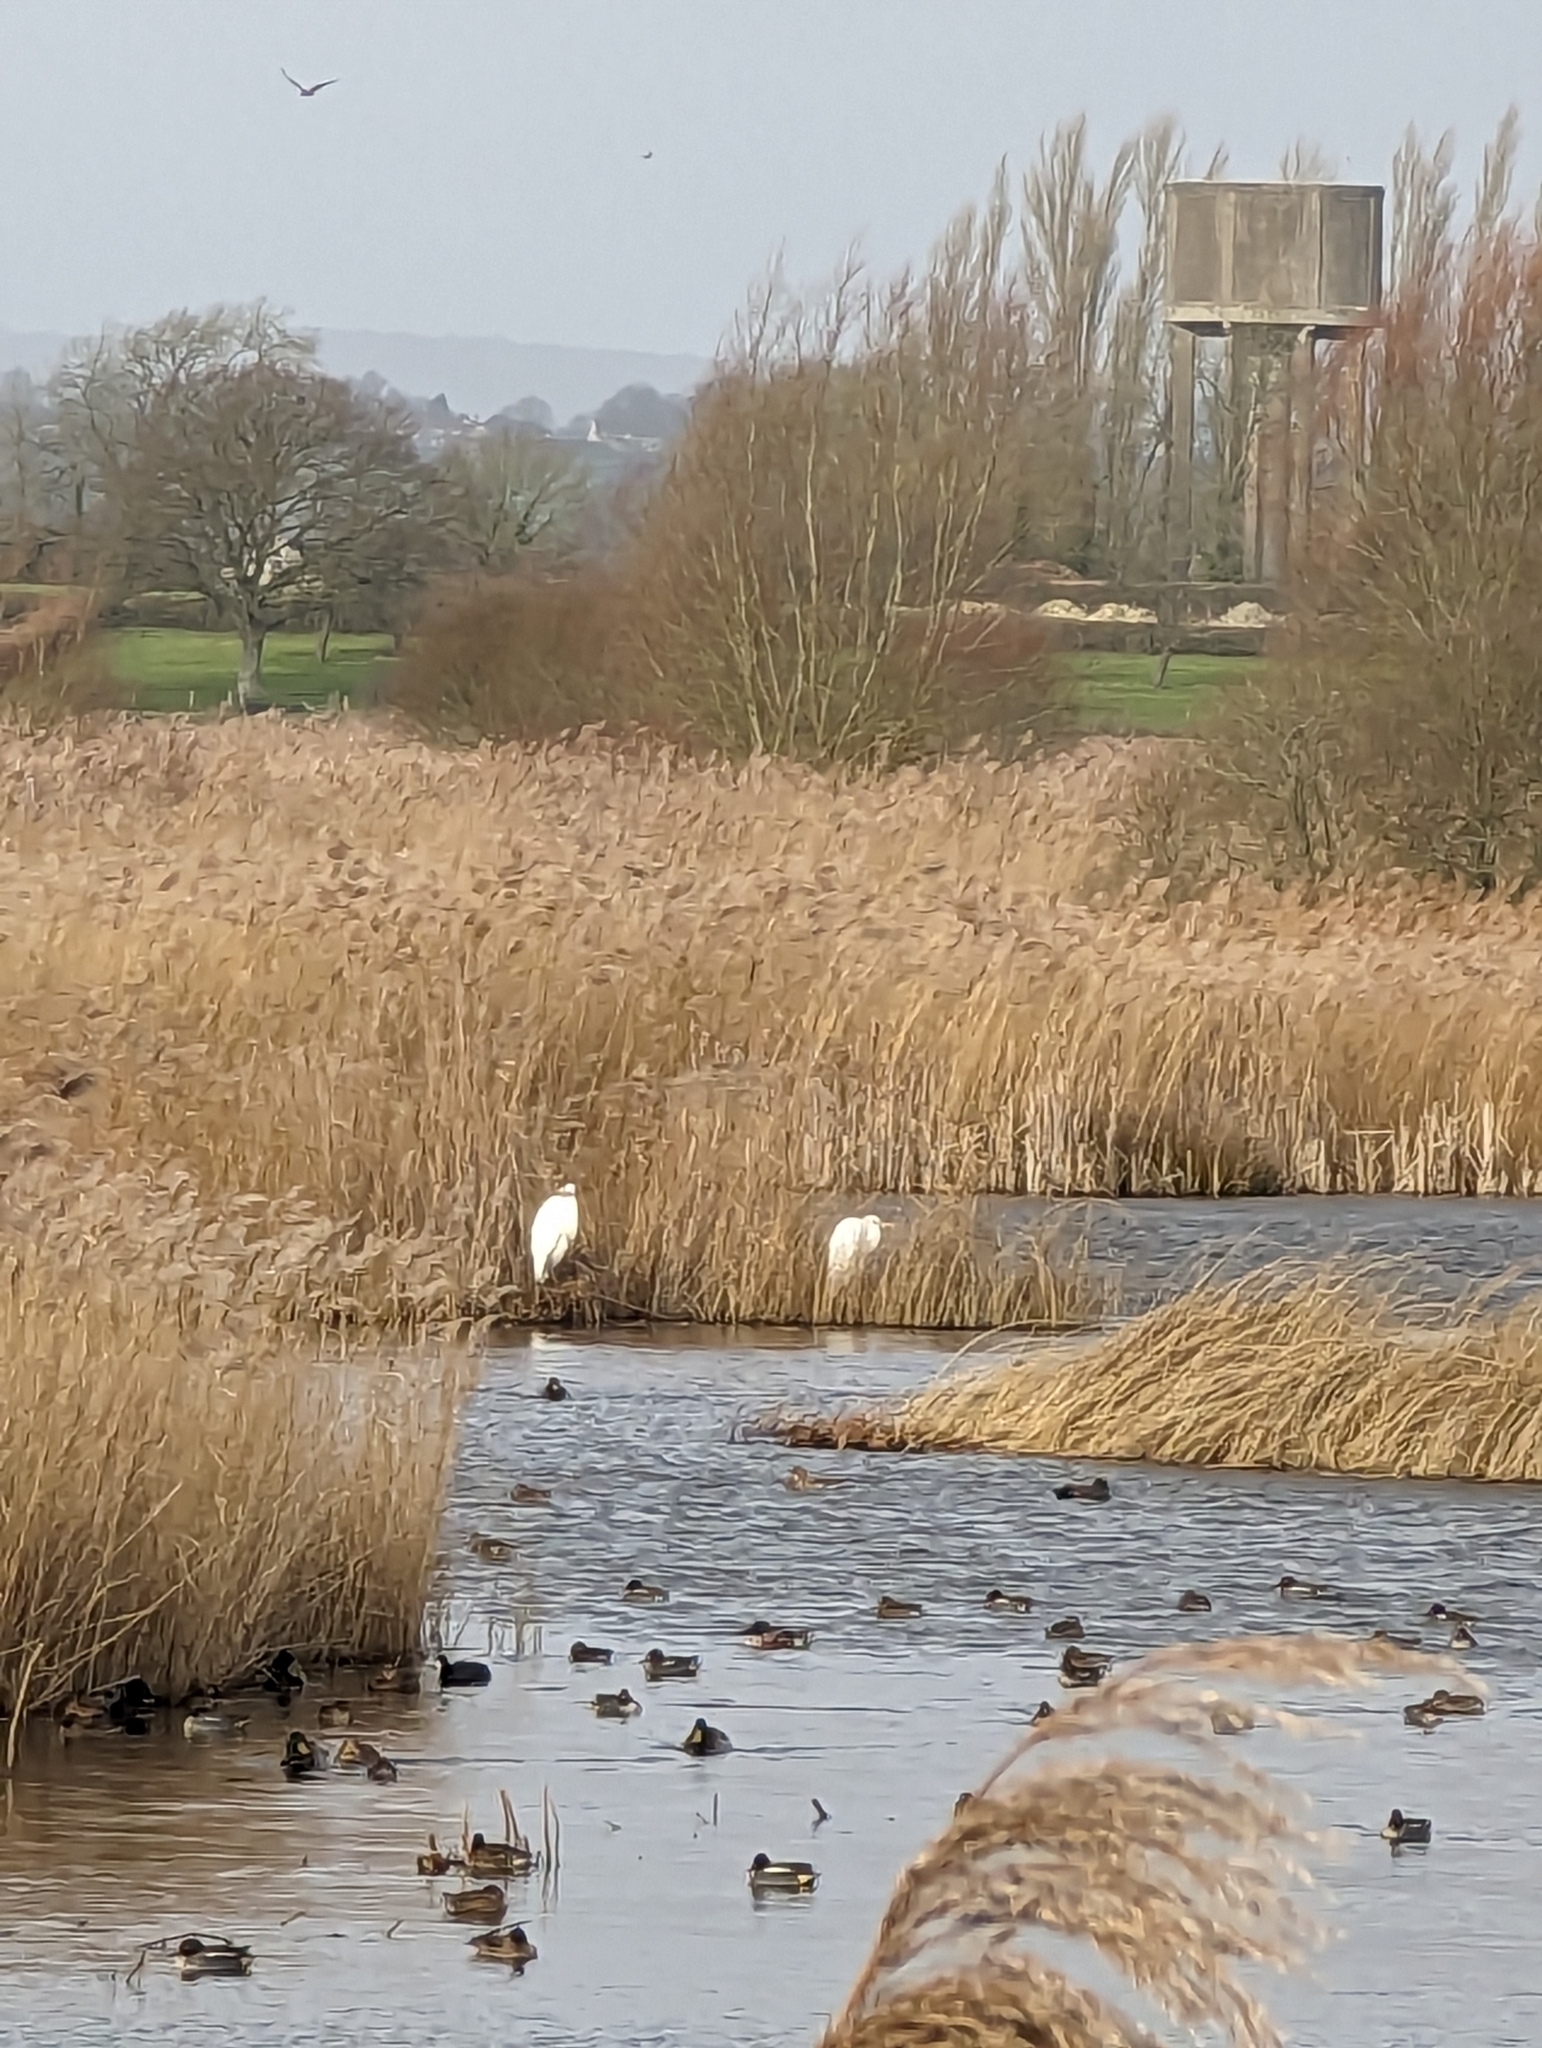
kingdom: Animalia
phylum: Chordata
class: Aves
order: Pelecaniformes
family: Ardeidae
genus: Ardea
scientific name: Ardea alba
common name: Great egret
